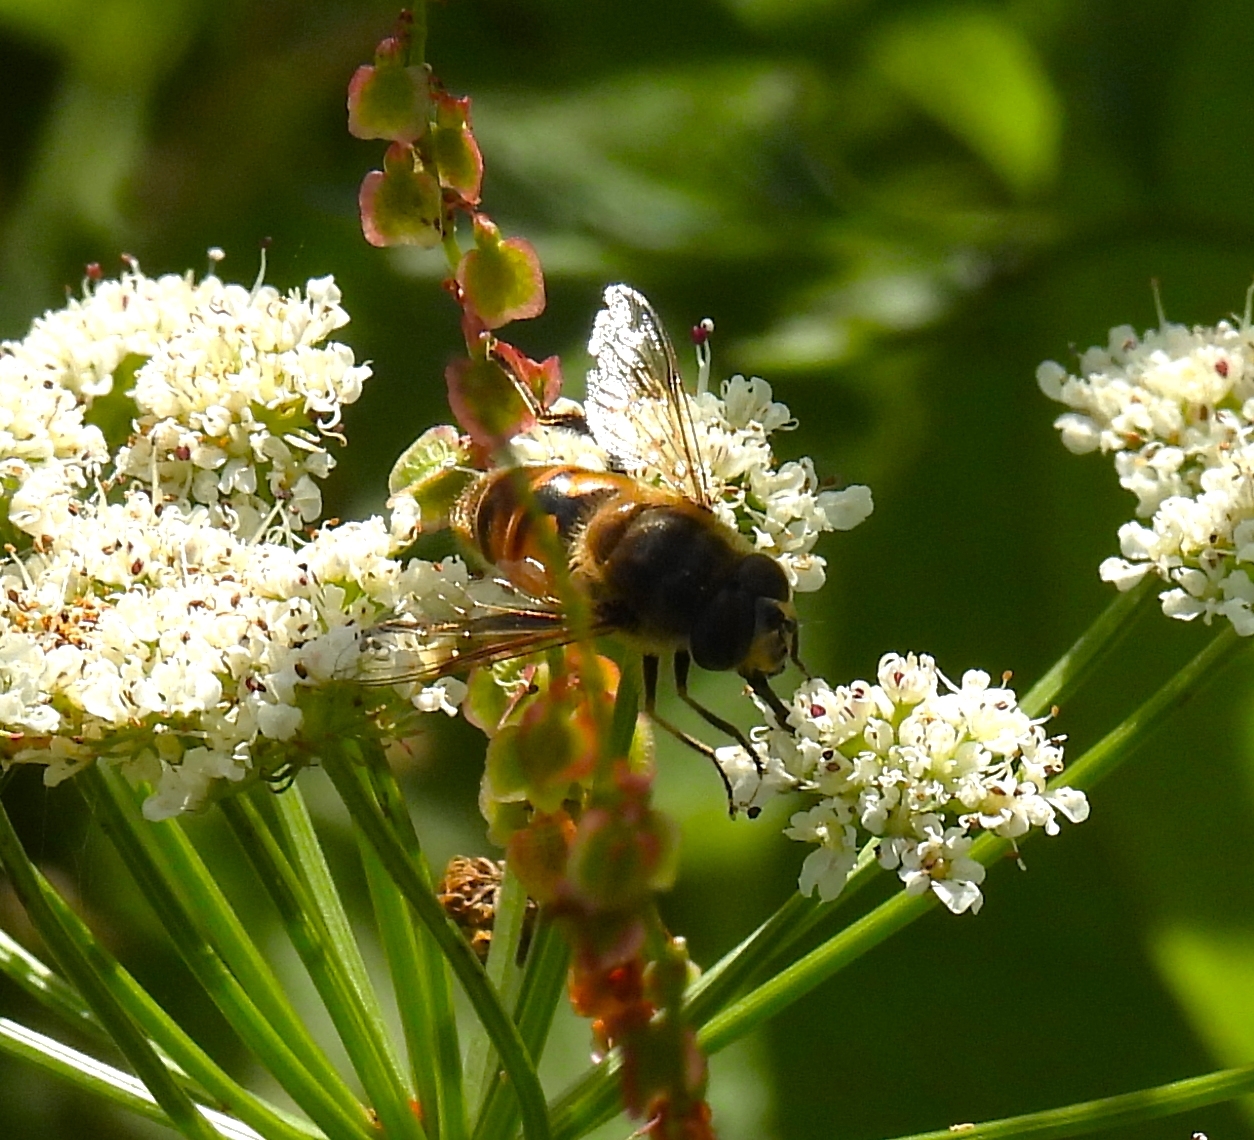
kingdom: Animalia
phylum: Arthropoda
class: Insecta
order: Diptera
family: Syrphidae
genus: Eristalis
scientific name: Eristalis tenax
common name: Drone fly
